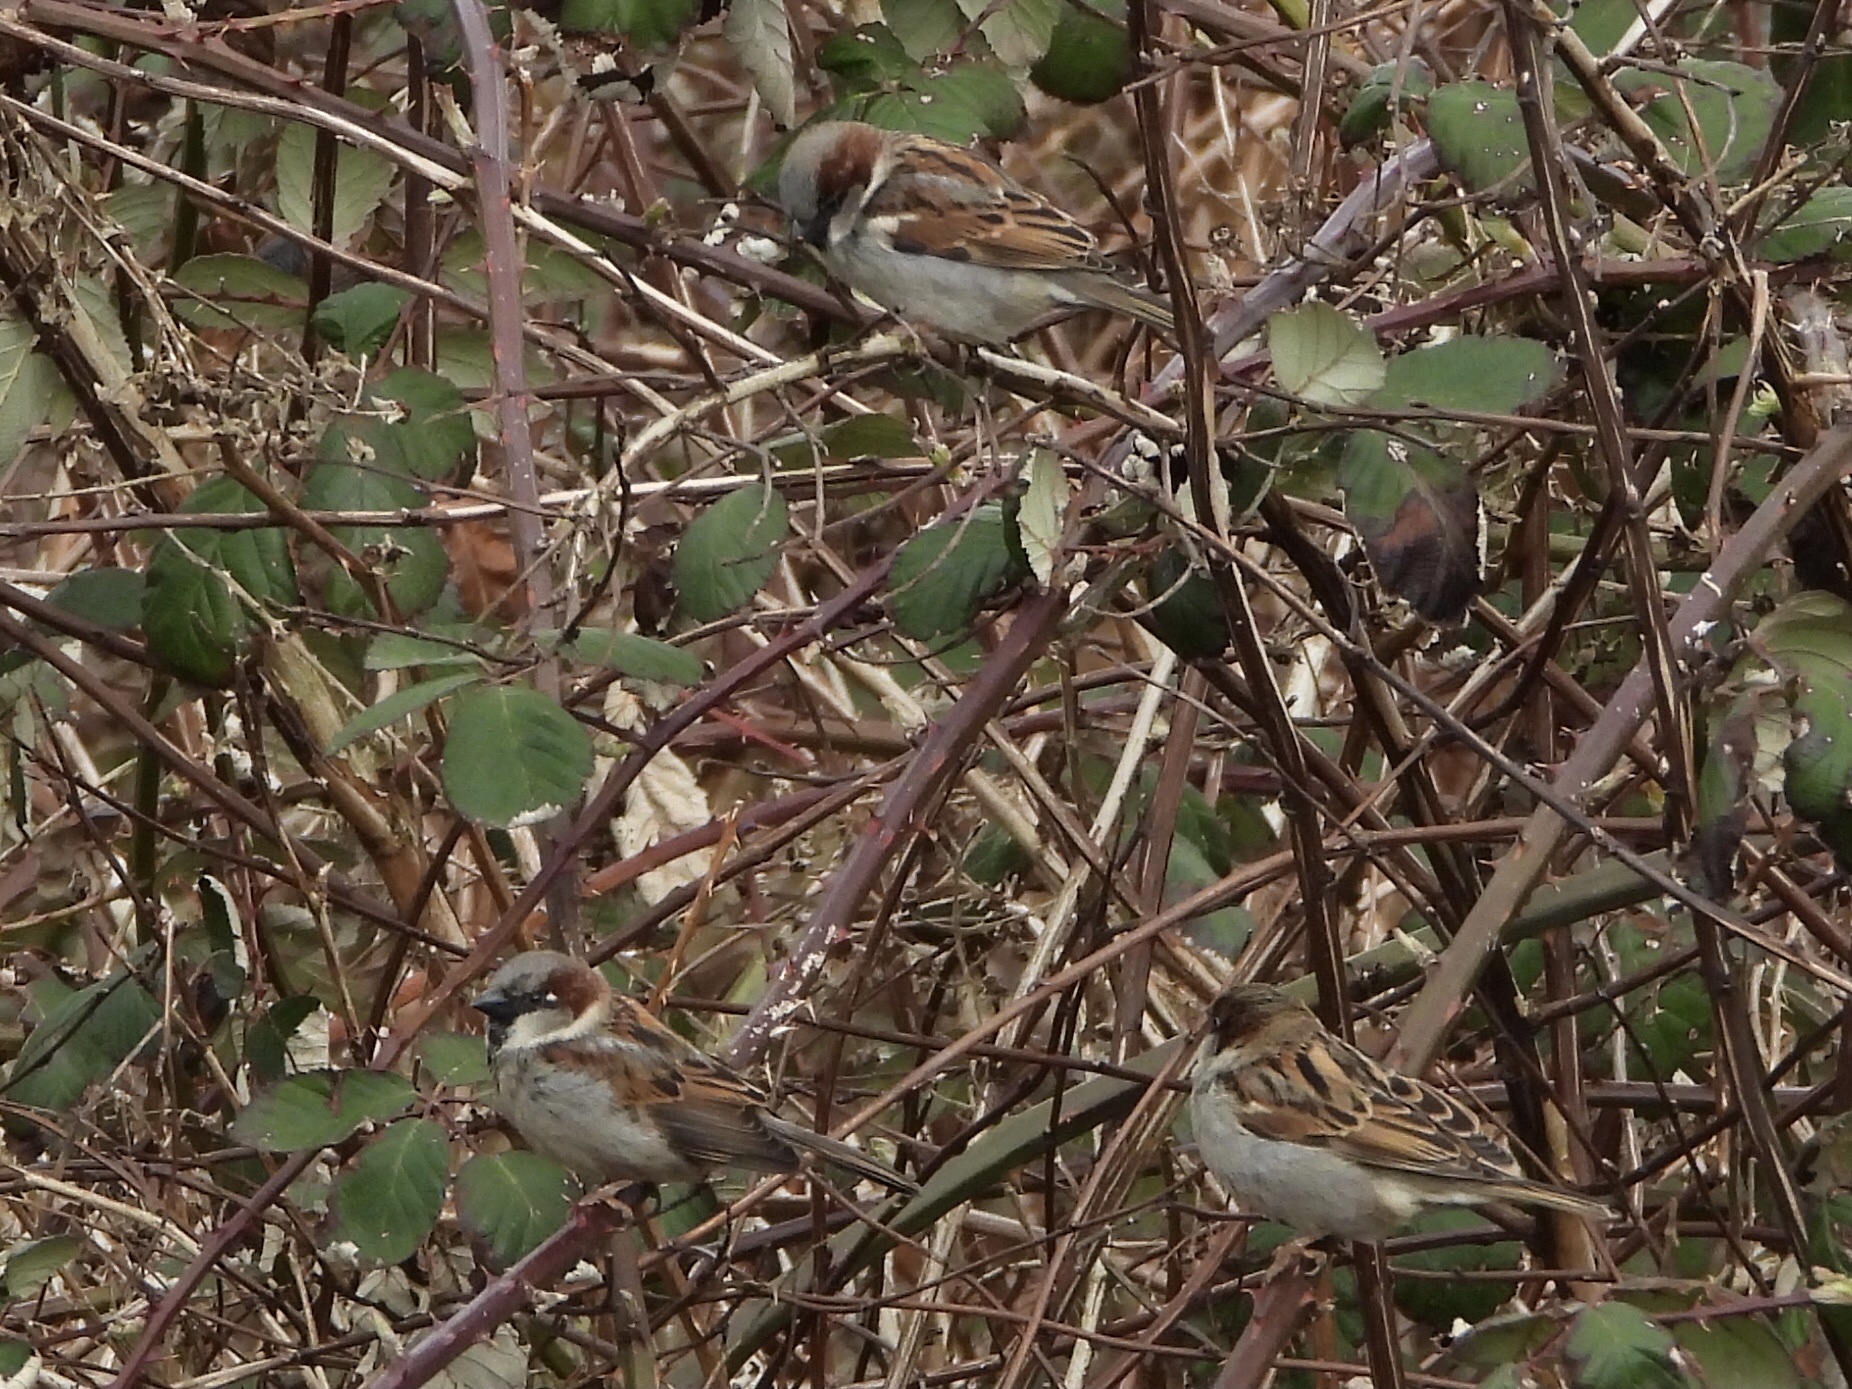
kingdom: Animalia
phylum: Chordata
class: Aves
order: Passeriformes
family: Passeridae
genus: Passer
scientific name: Passer domesticus
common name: House sparrow
